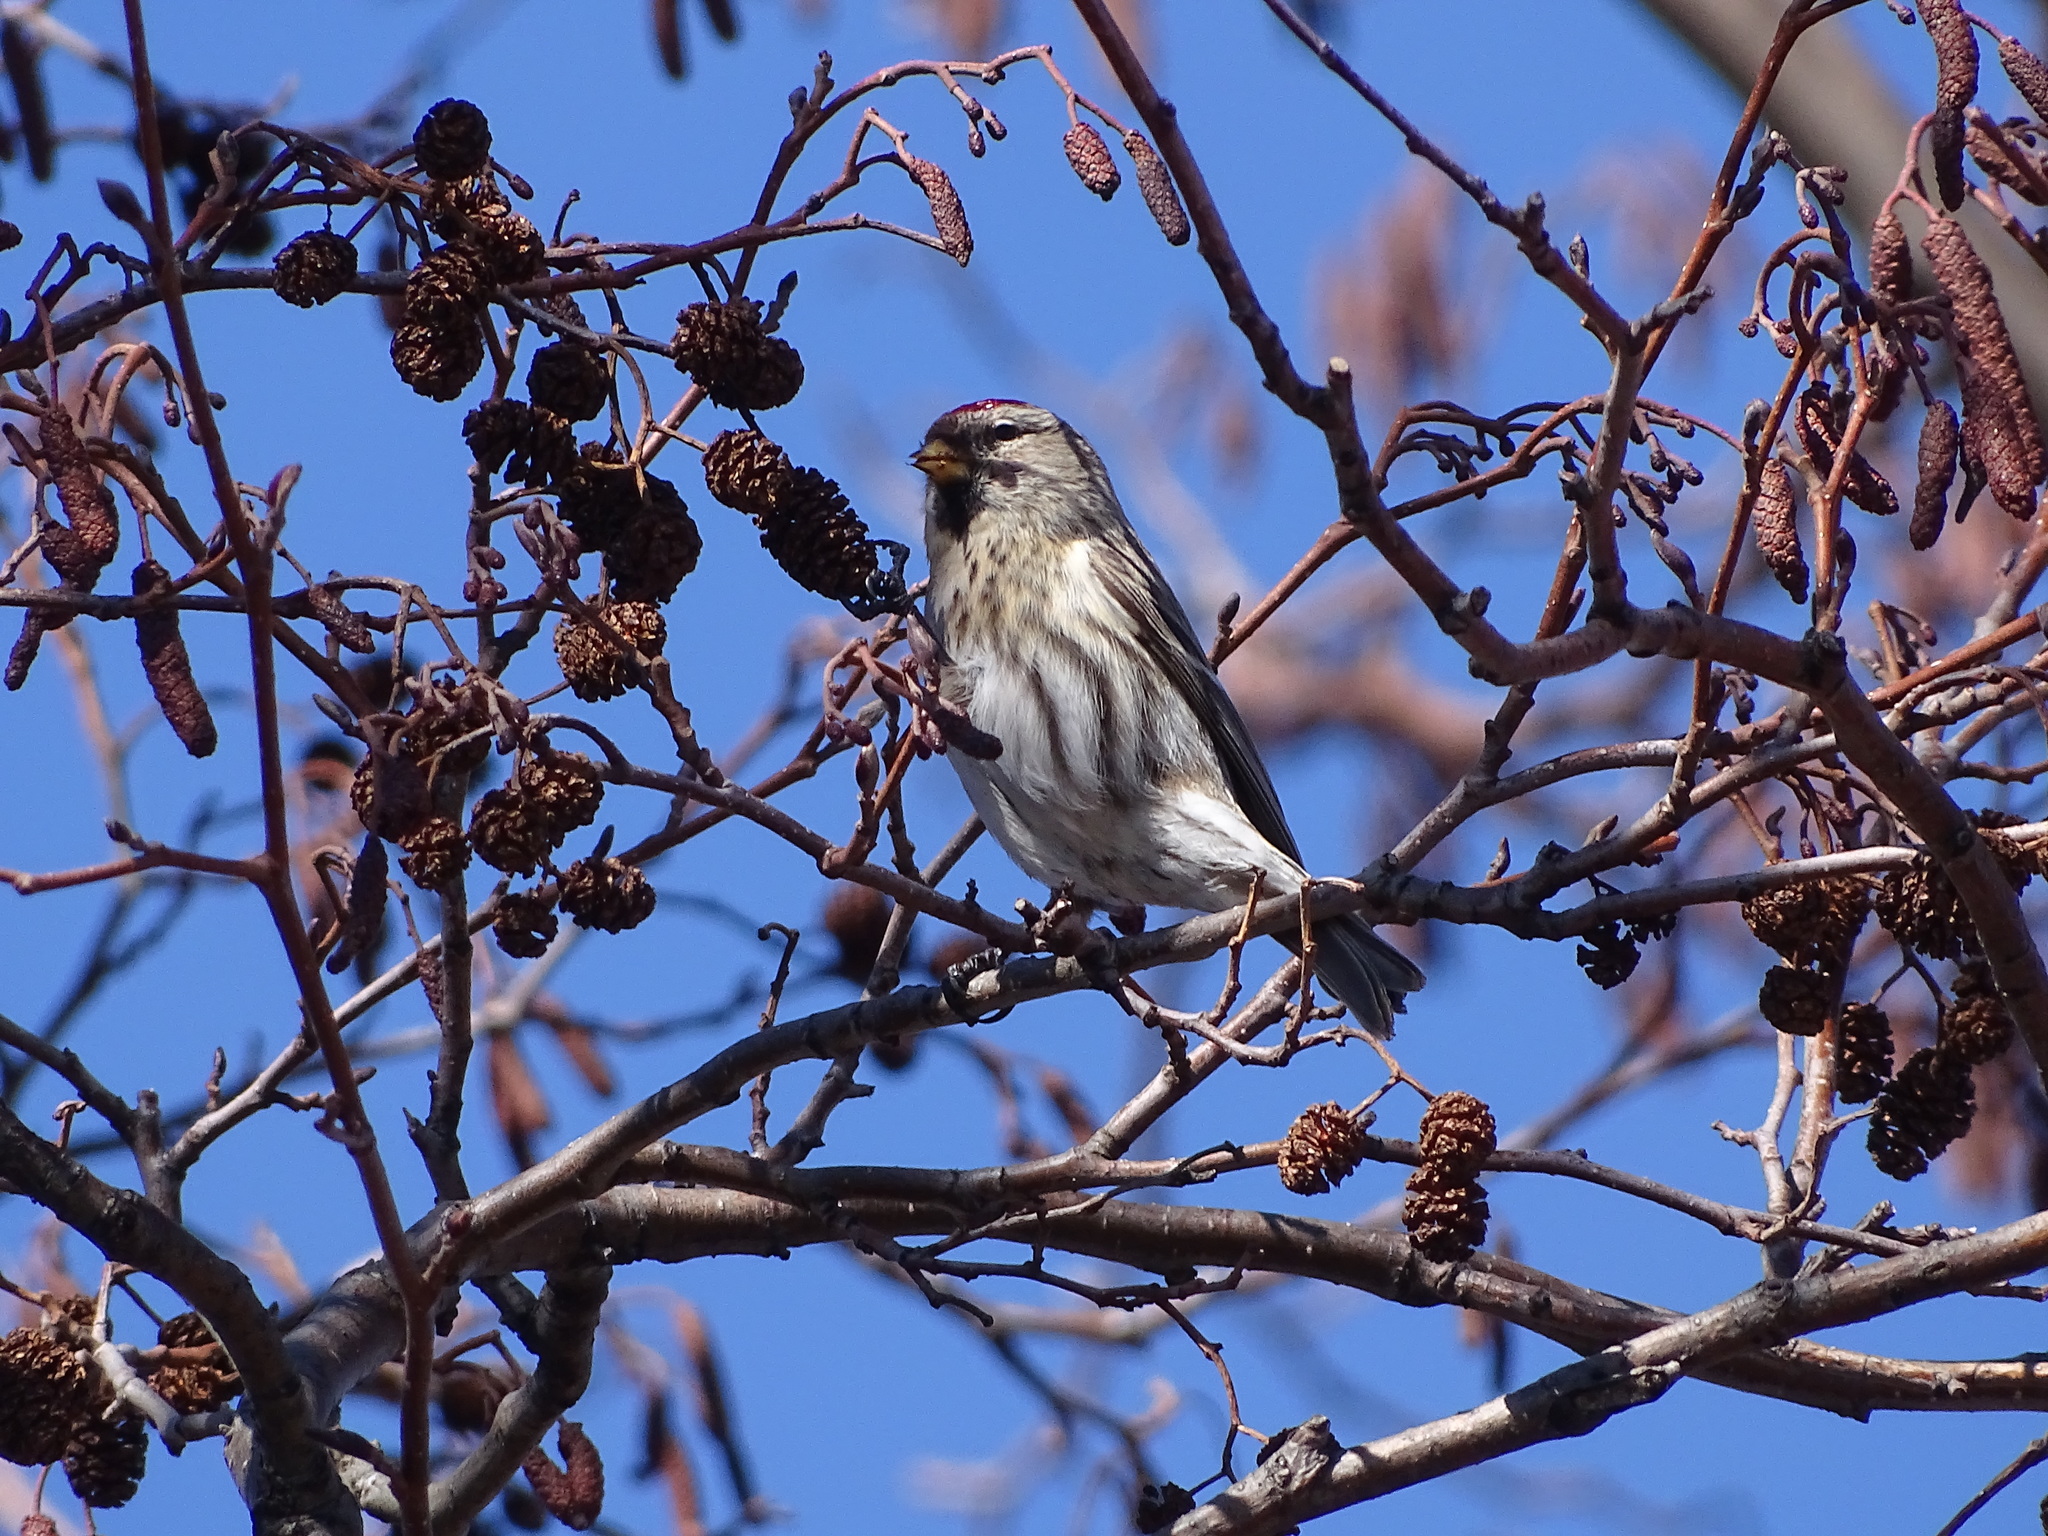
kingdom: Animalia
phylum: Chordata
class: Aves
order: Passeriformes
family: Fringillidae
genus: Acanthis
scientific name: Acanthis flammea
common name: Common redpoll
